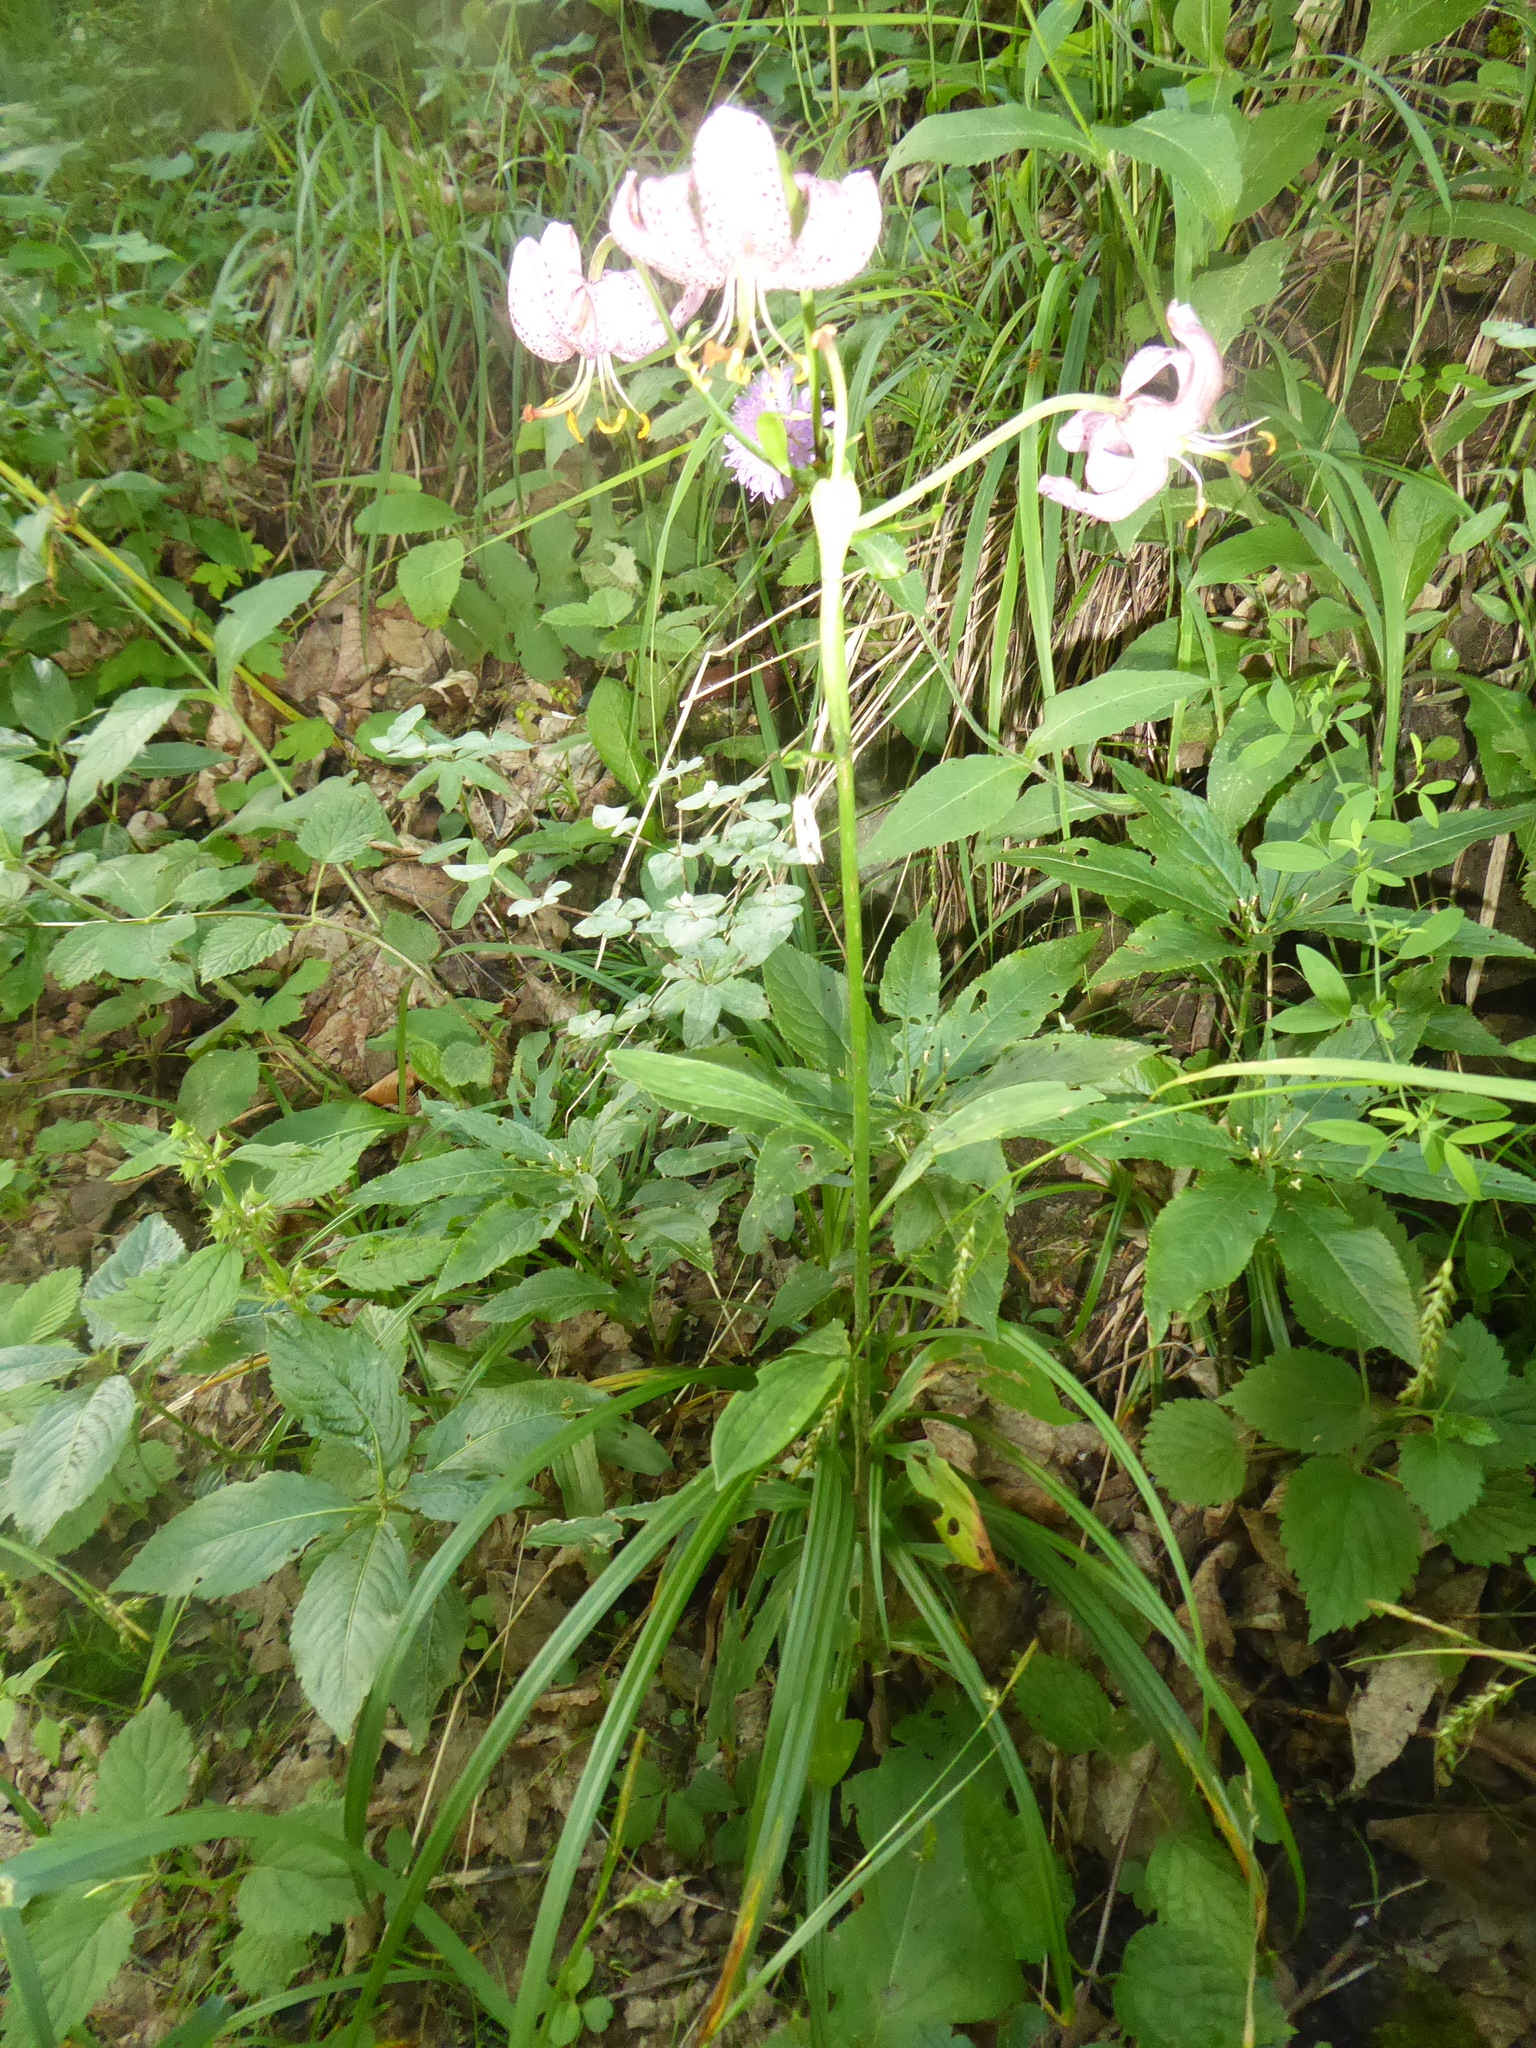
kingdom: Plantae
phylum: Tracheophyta
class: Liliopsida
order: Liliales
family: Liliaceae
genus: Lilium
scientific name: Lilium martagon
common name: Martagon lily
